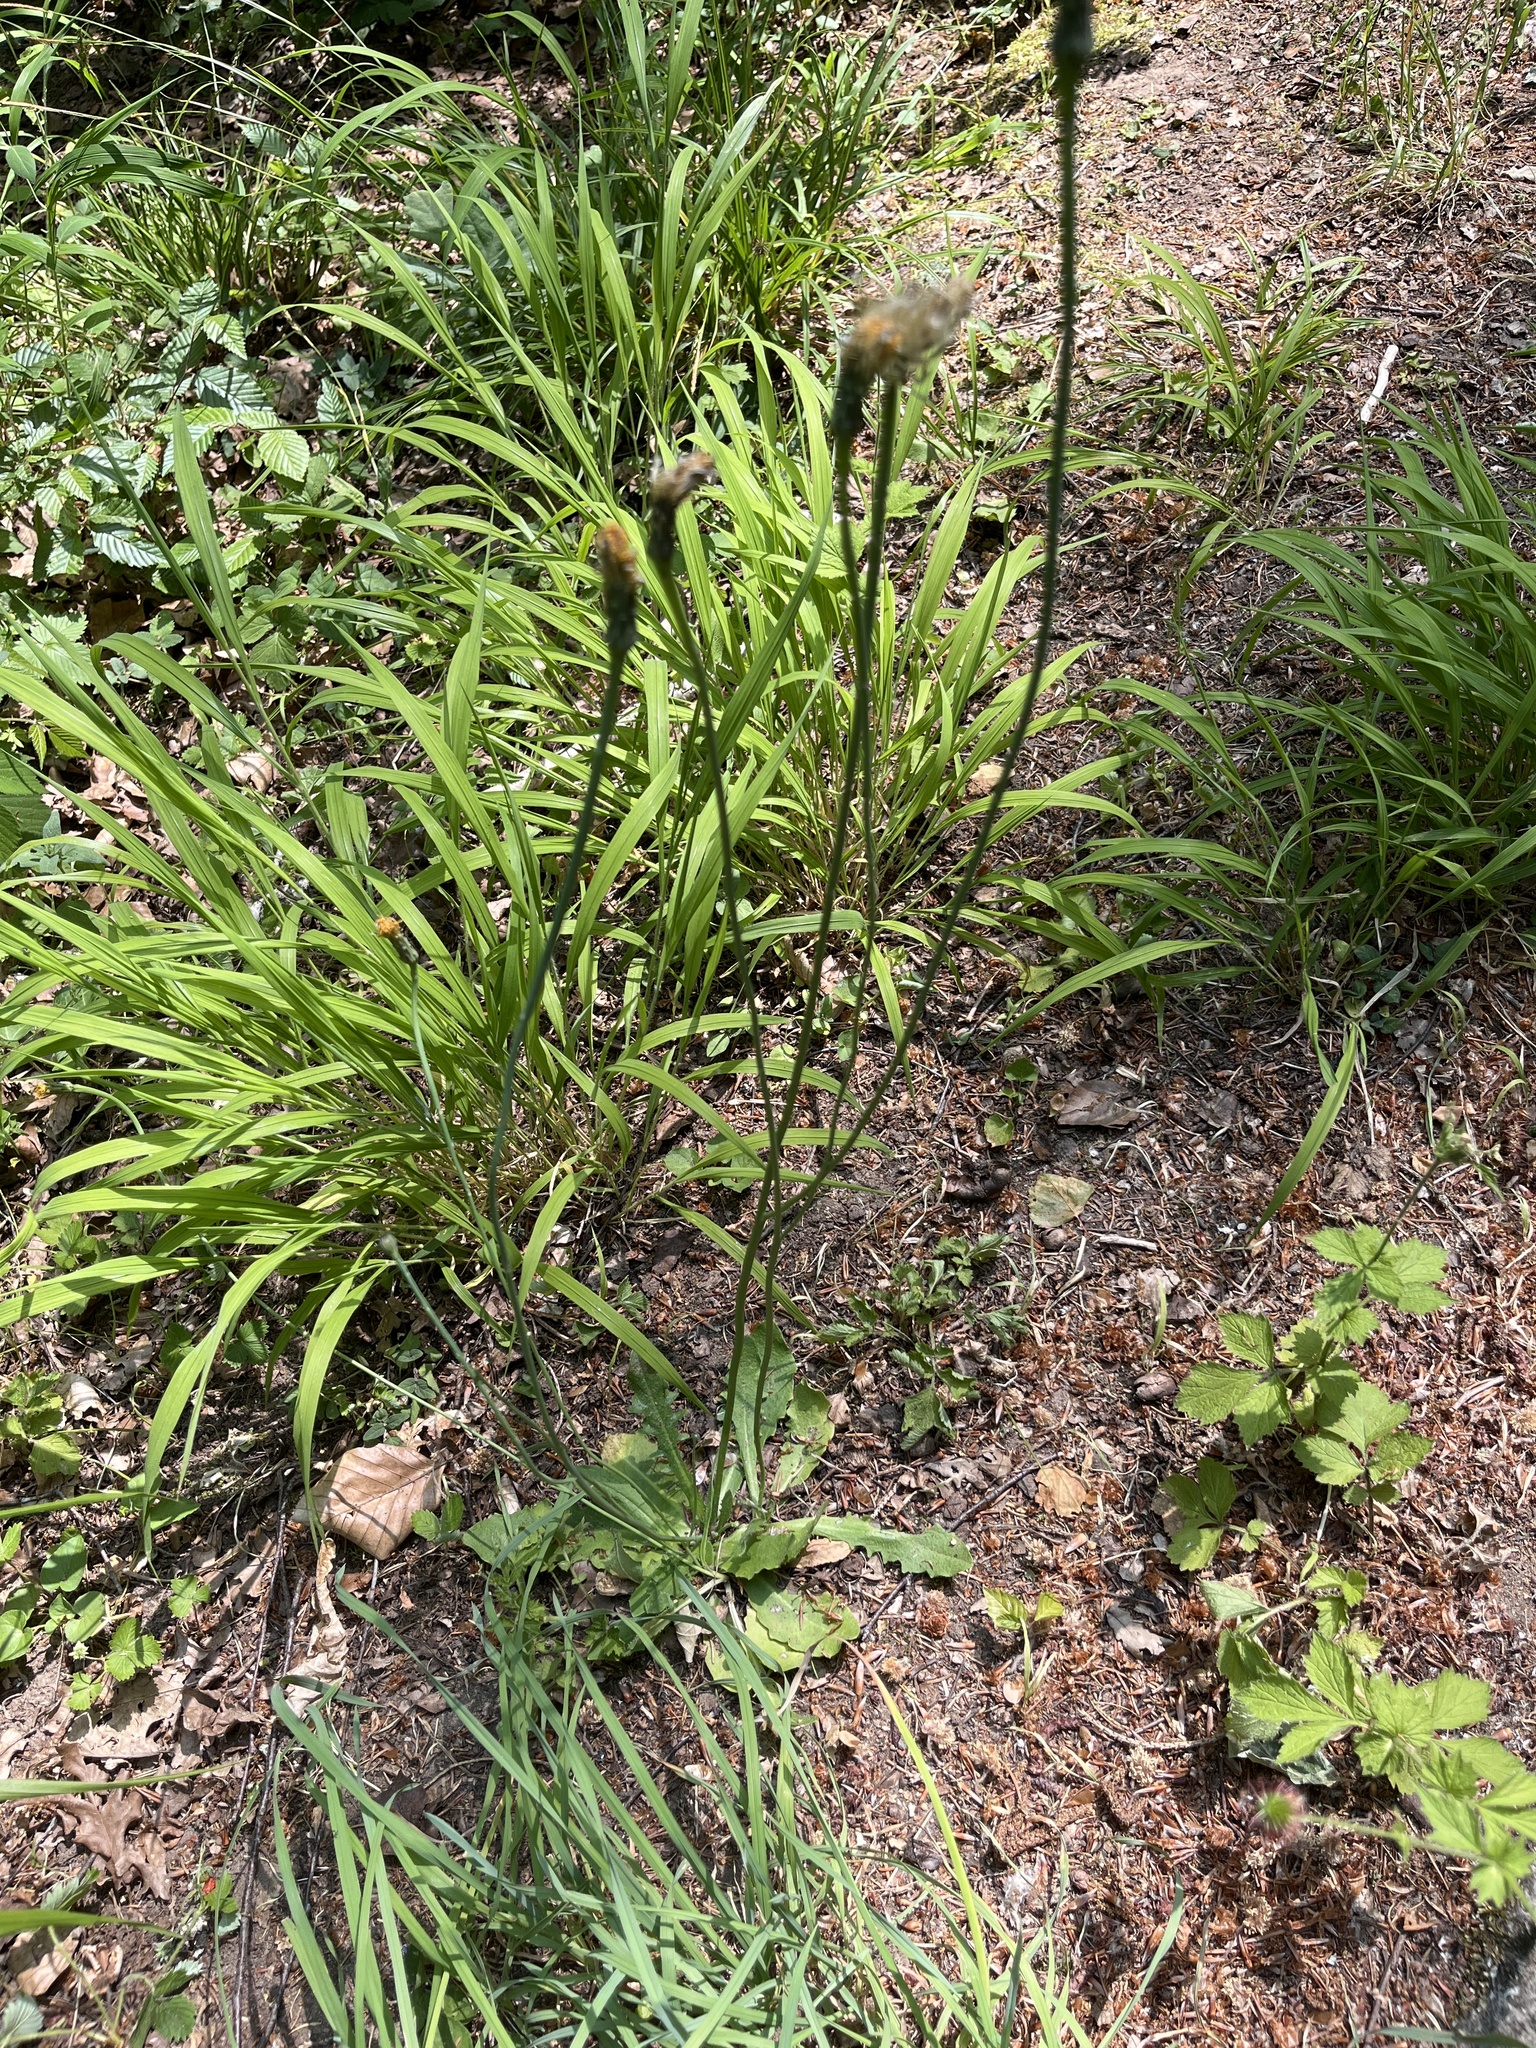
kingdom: Plantae
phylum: Tracheophyta
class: Magnoliopsida
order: Asterales
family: Asteraceae
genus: Hypochaeris
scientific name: Hypochaeris radicata
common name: Flatweed
